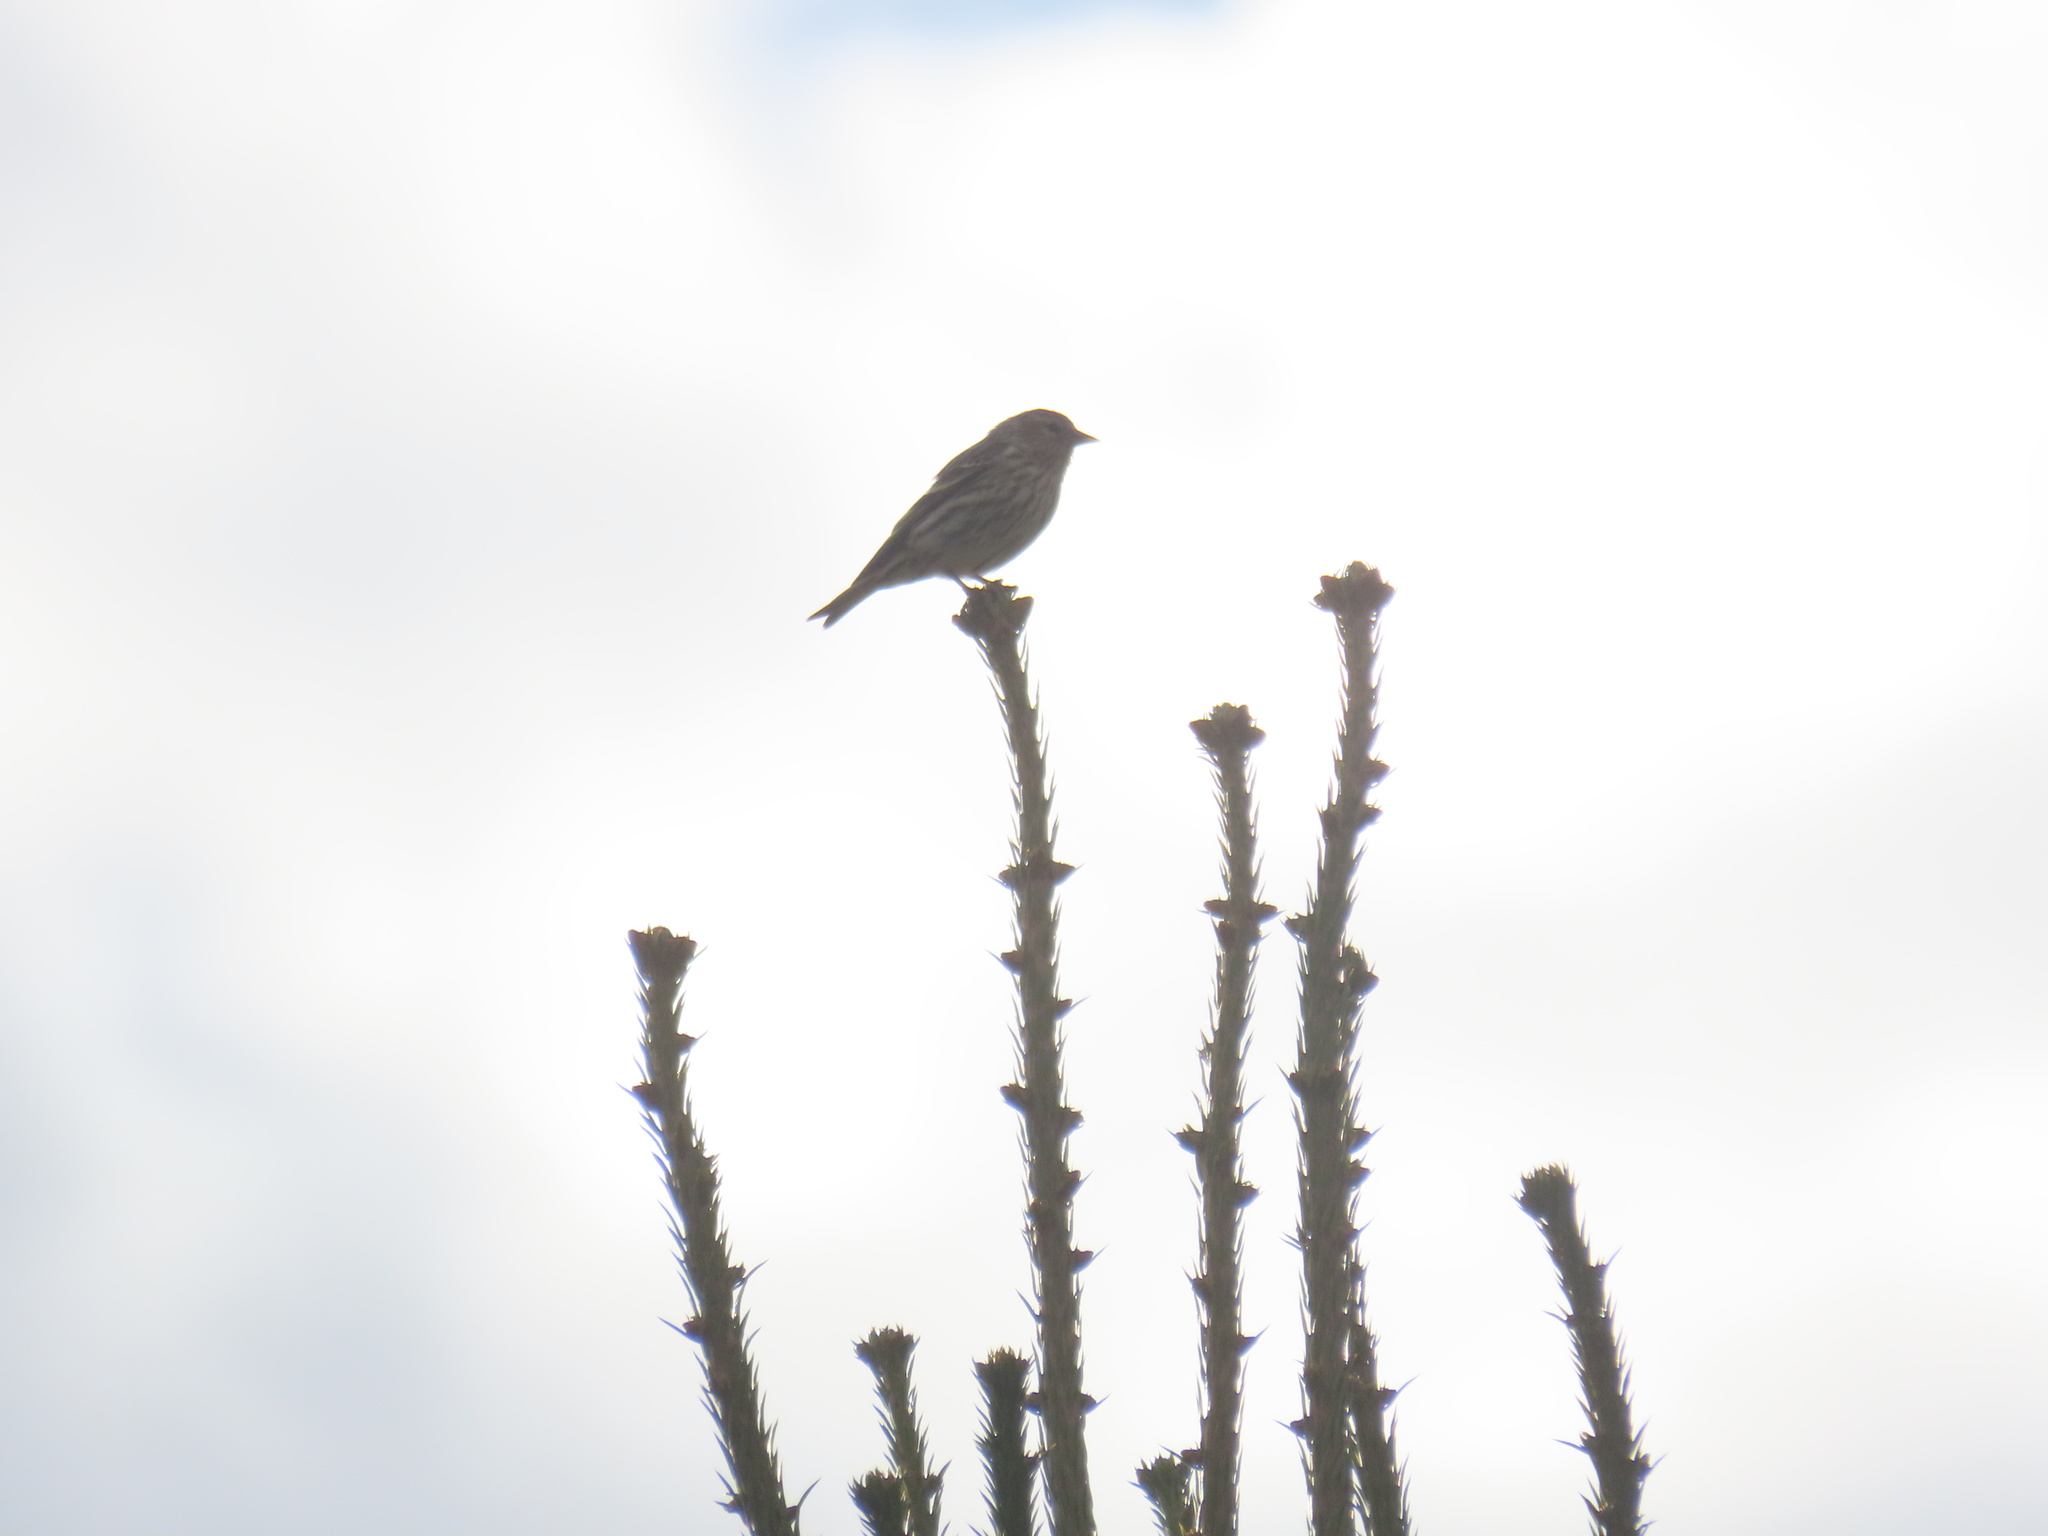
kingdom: Animalia
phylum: Chordata
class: Aves
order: Passeriformes
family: Fringillidae
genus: Spinus
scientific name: Spinus pinus
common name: Pine siskin
